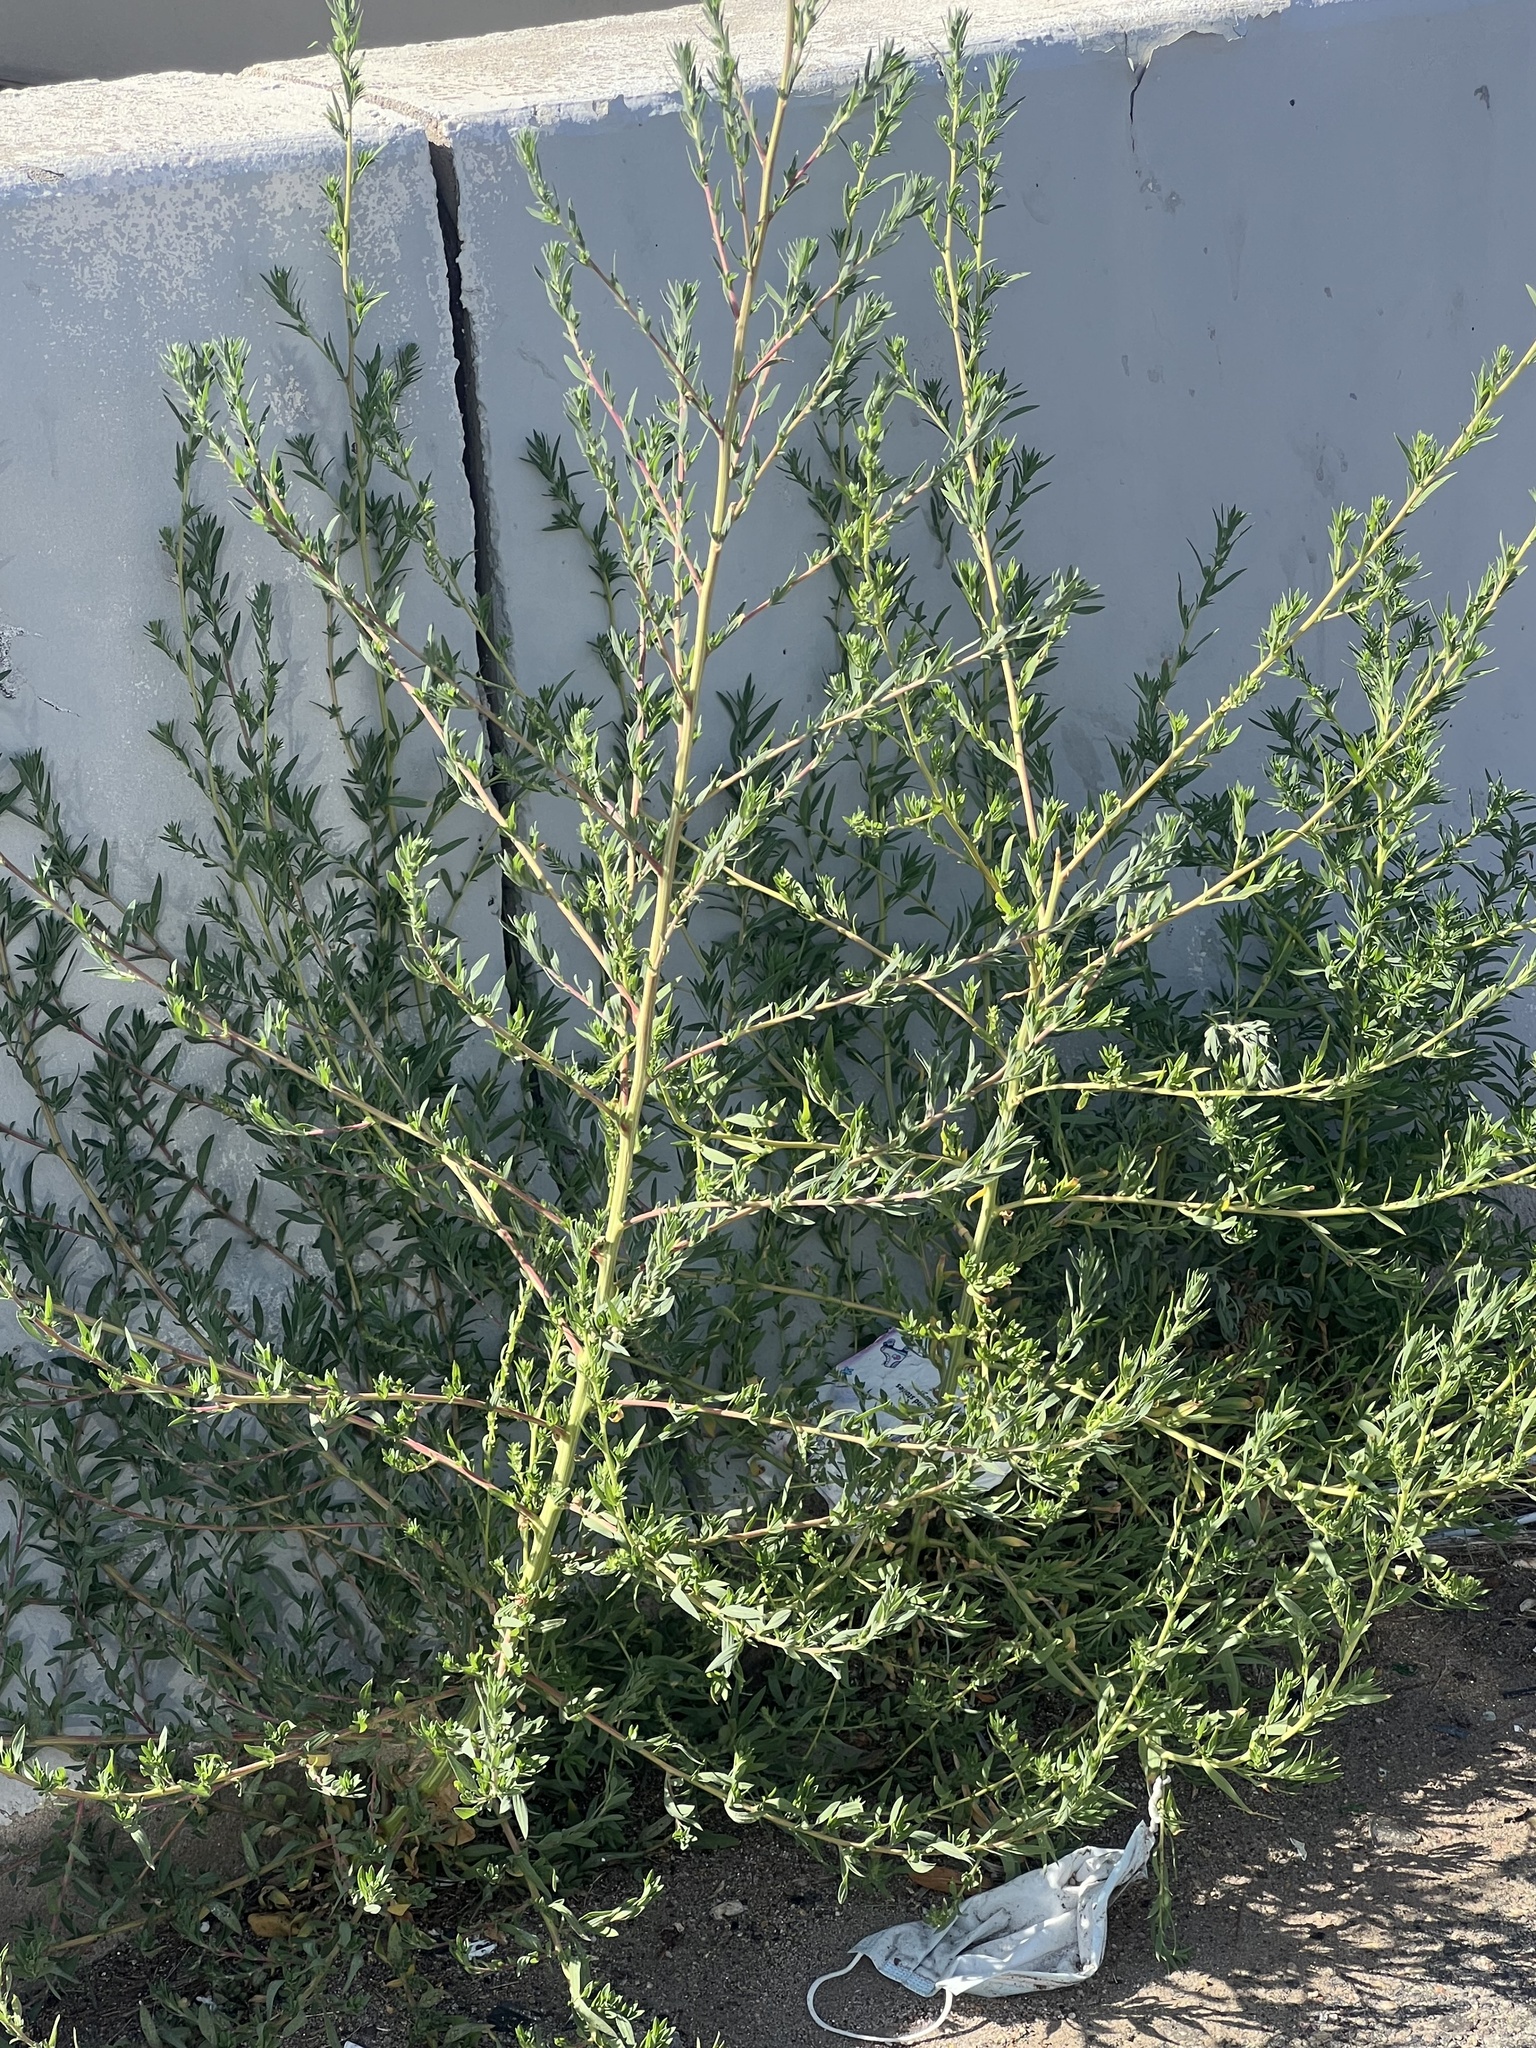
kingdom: Plantae
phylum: Tracheophyta
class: Magnoliopsida
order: Caryophyllales
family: Amaranthaceae
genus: Bassia
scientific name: Bassia scoparia
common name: Belvedere
